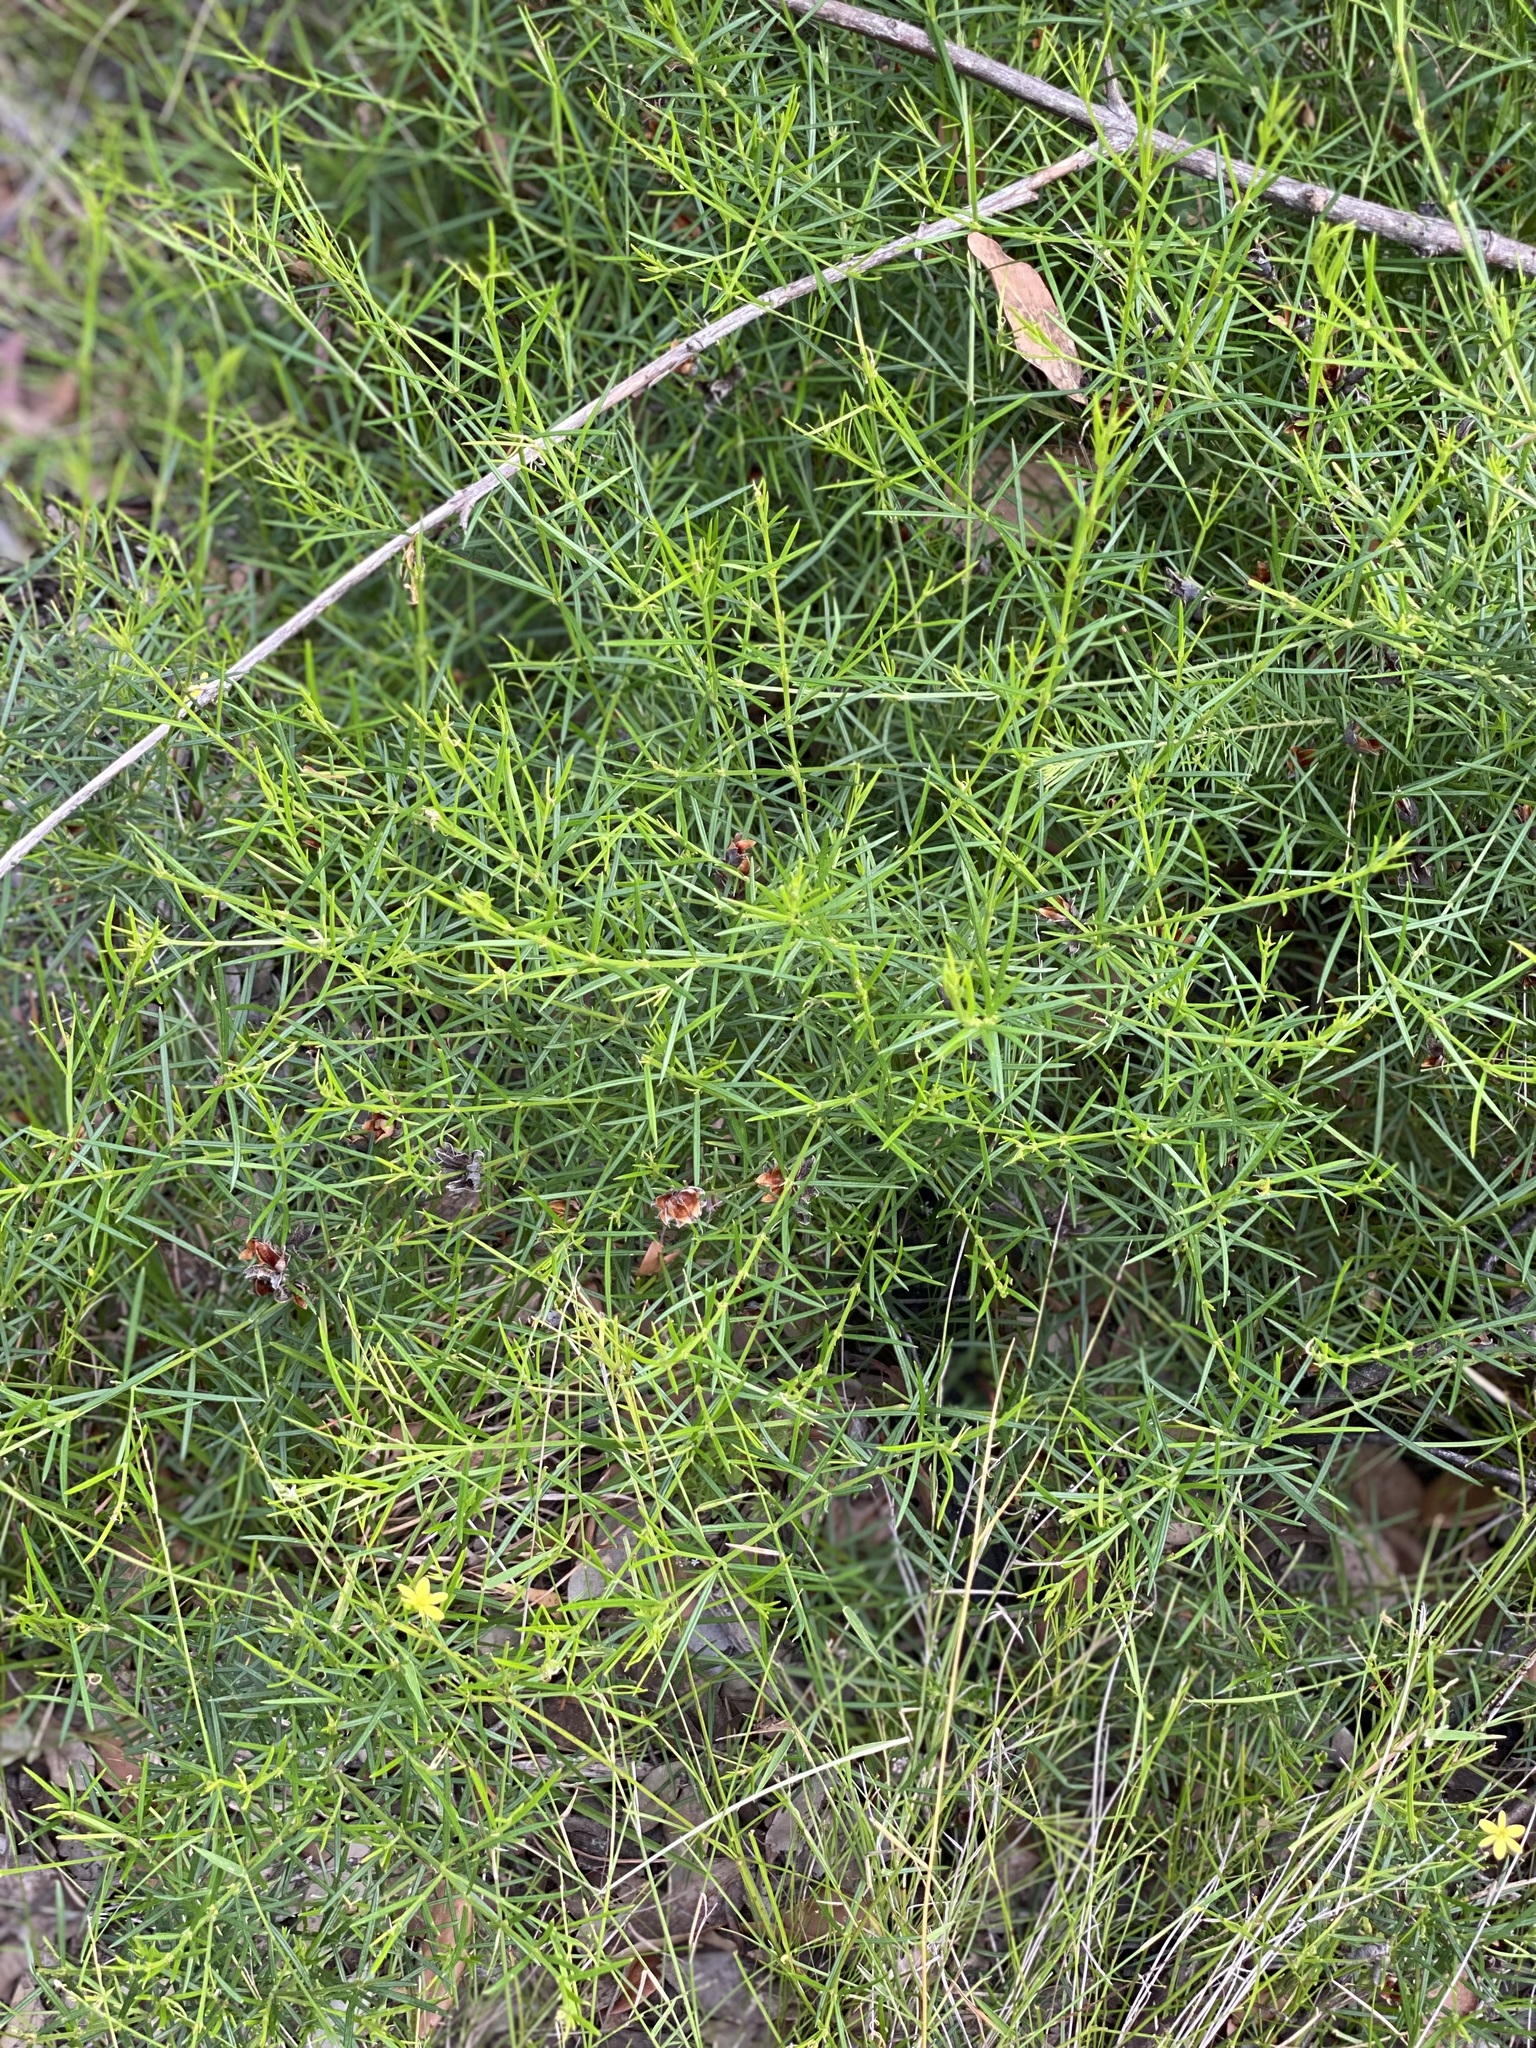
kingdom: Plantae
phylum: Tracheophyta
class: Liliopsida
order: Asparagales
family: Asphodelaceae
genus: Tricoryne
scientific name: Tricoryne elatior
